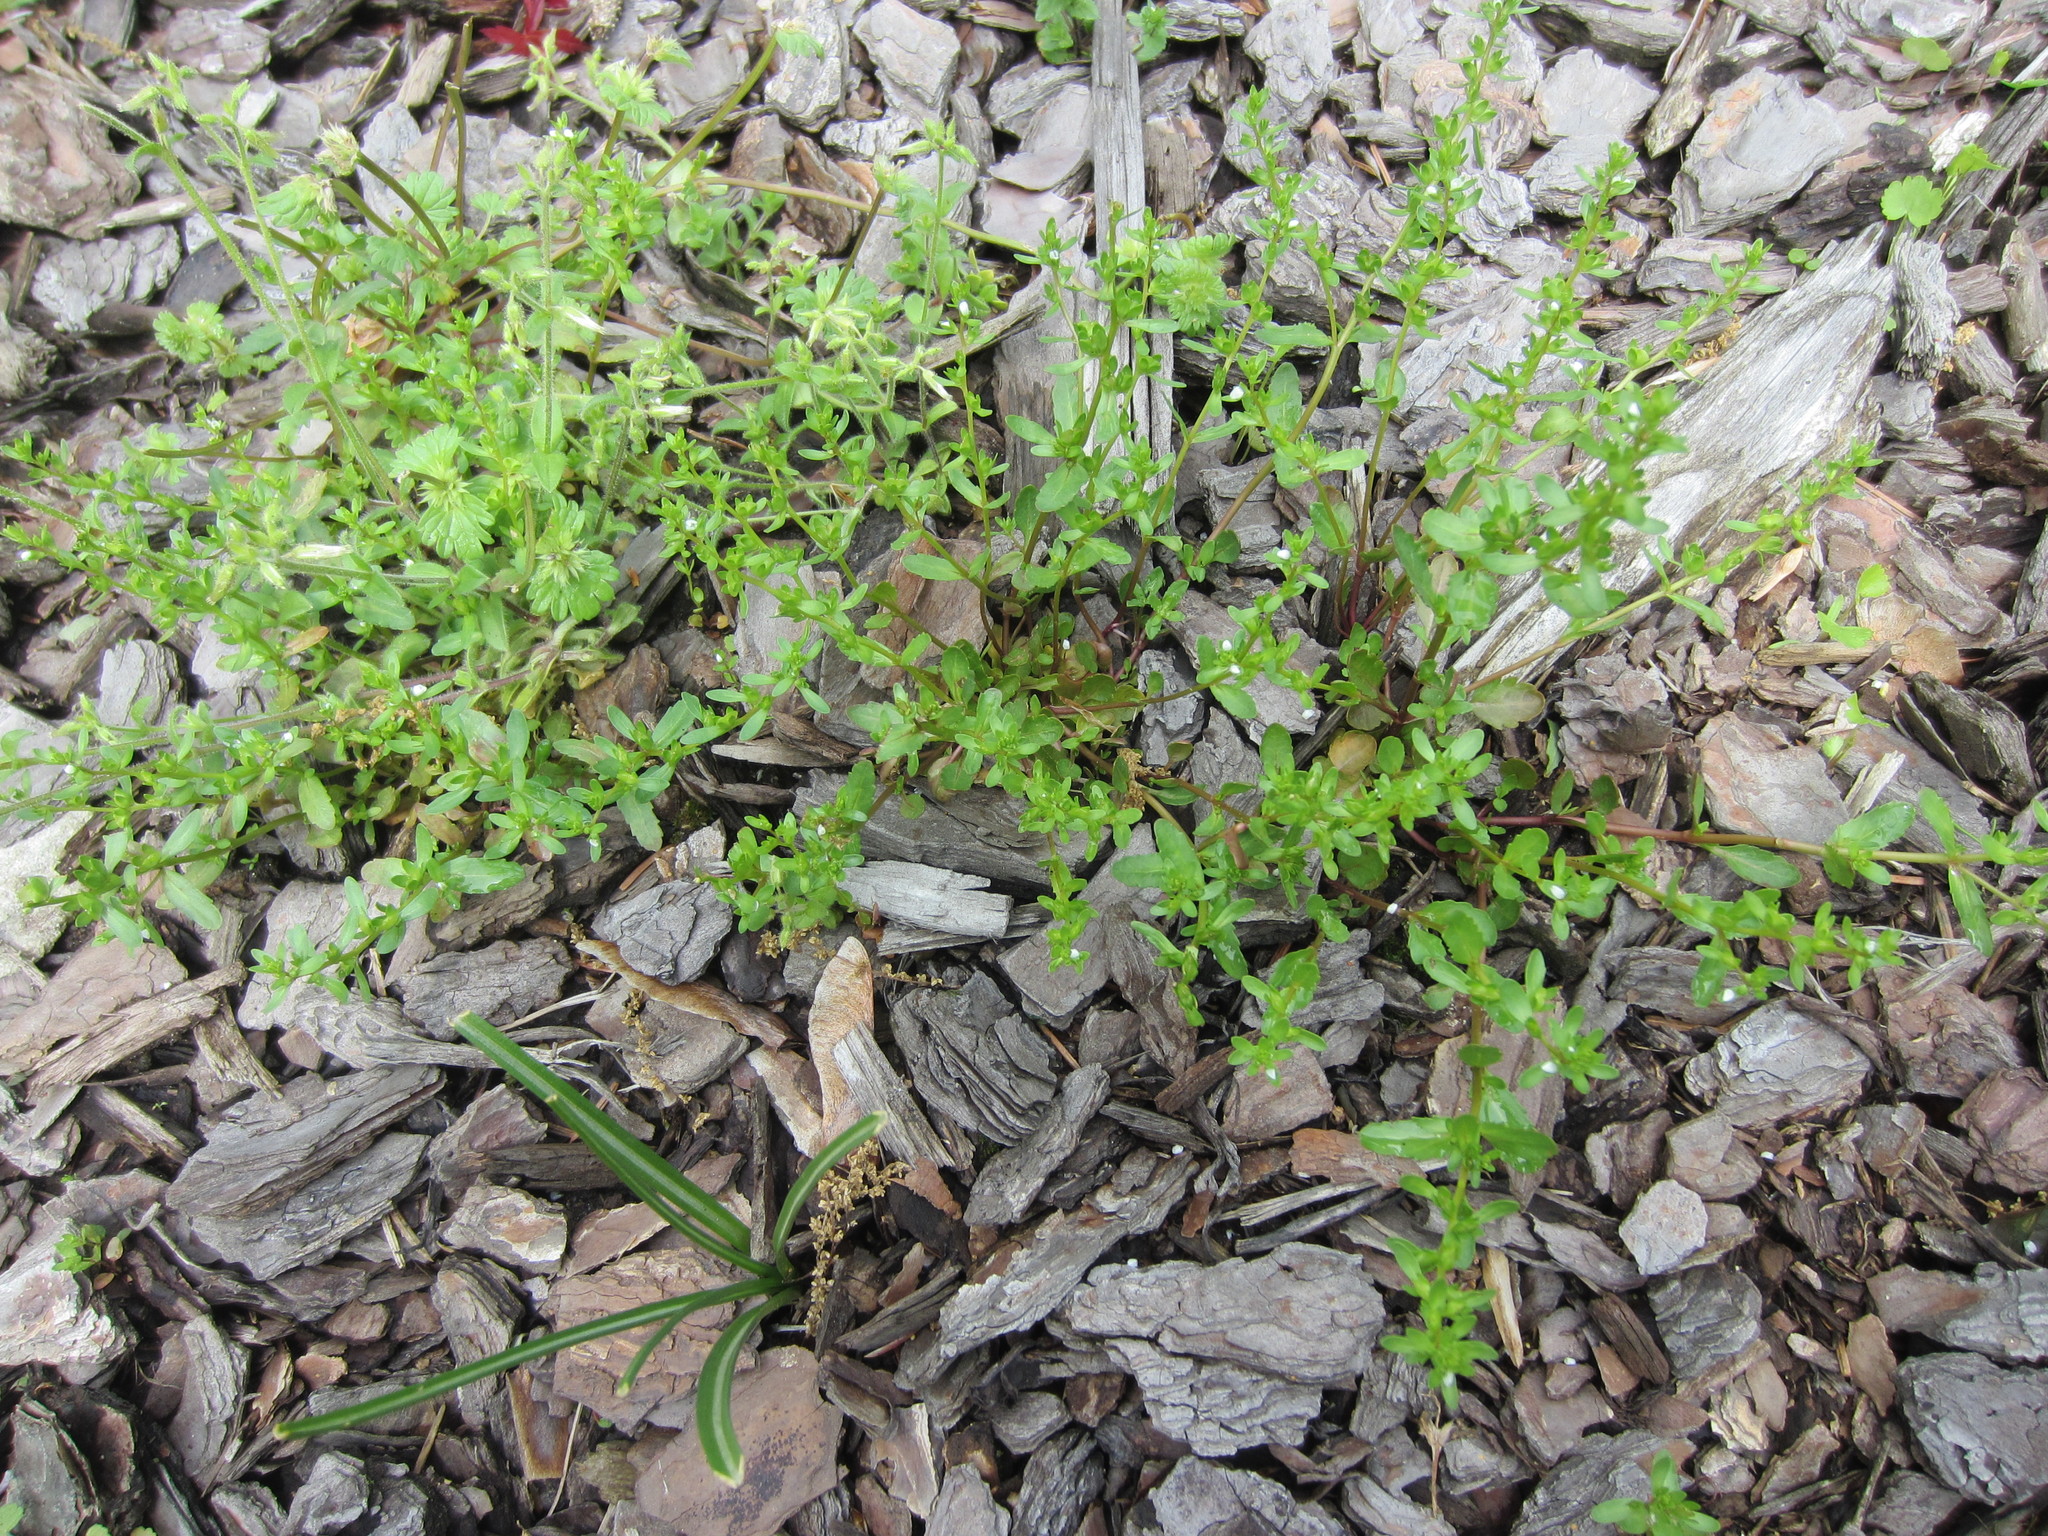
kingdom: Plantae
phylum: Tracheophyta
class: Magnoliopsida
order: Lamiales
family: Plantaginaceae
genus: Veronica
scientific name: Veronica peregrina
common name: Neckweed
